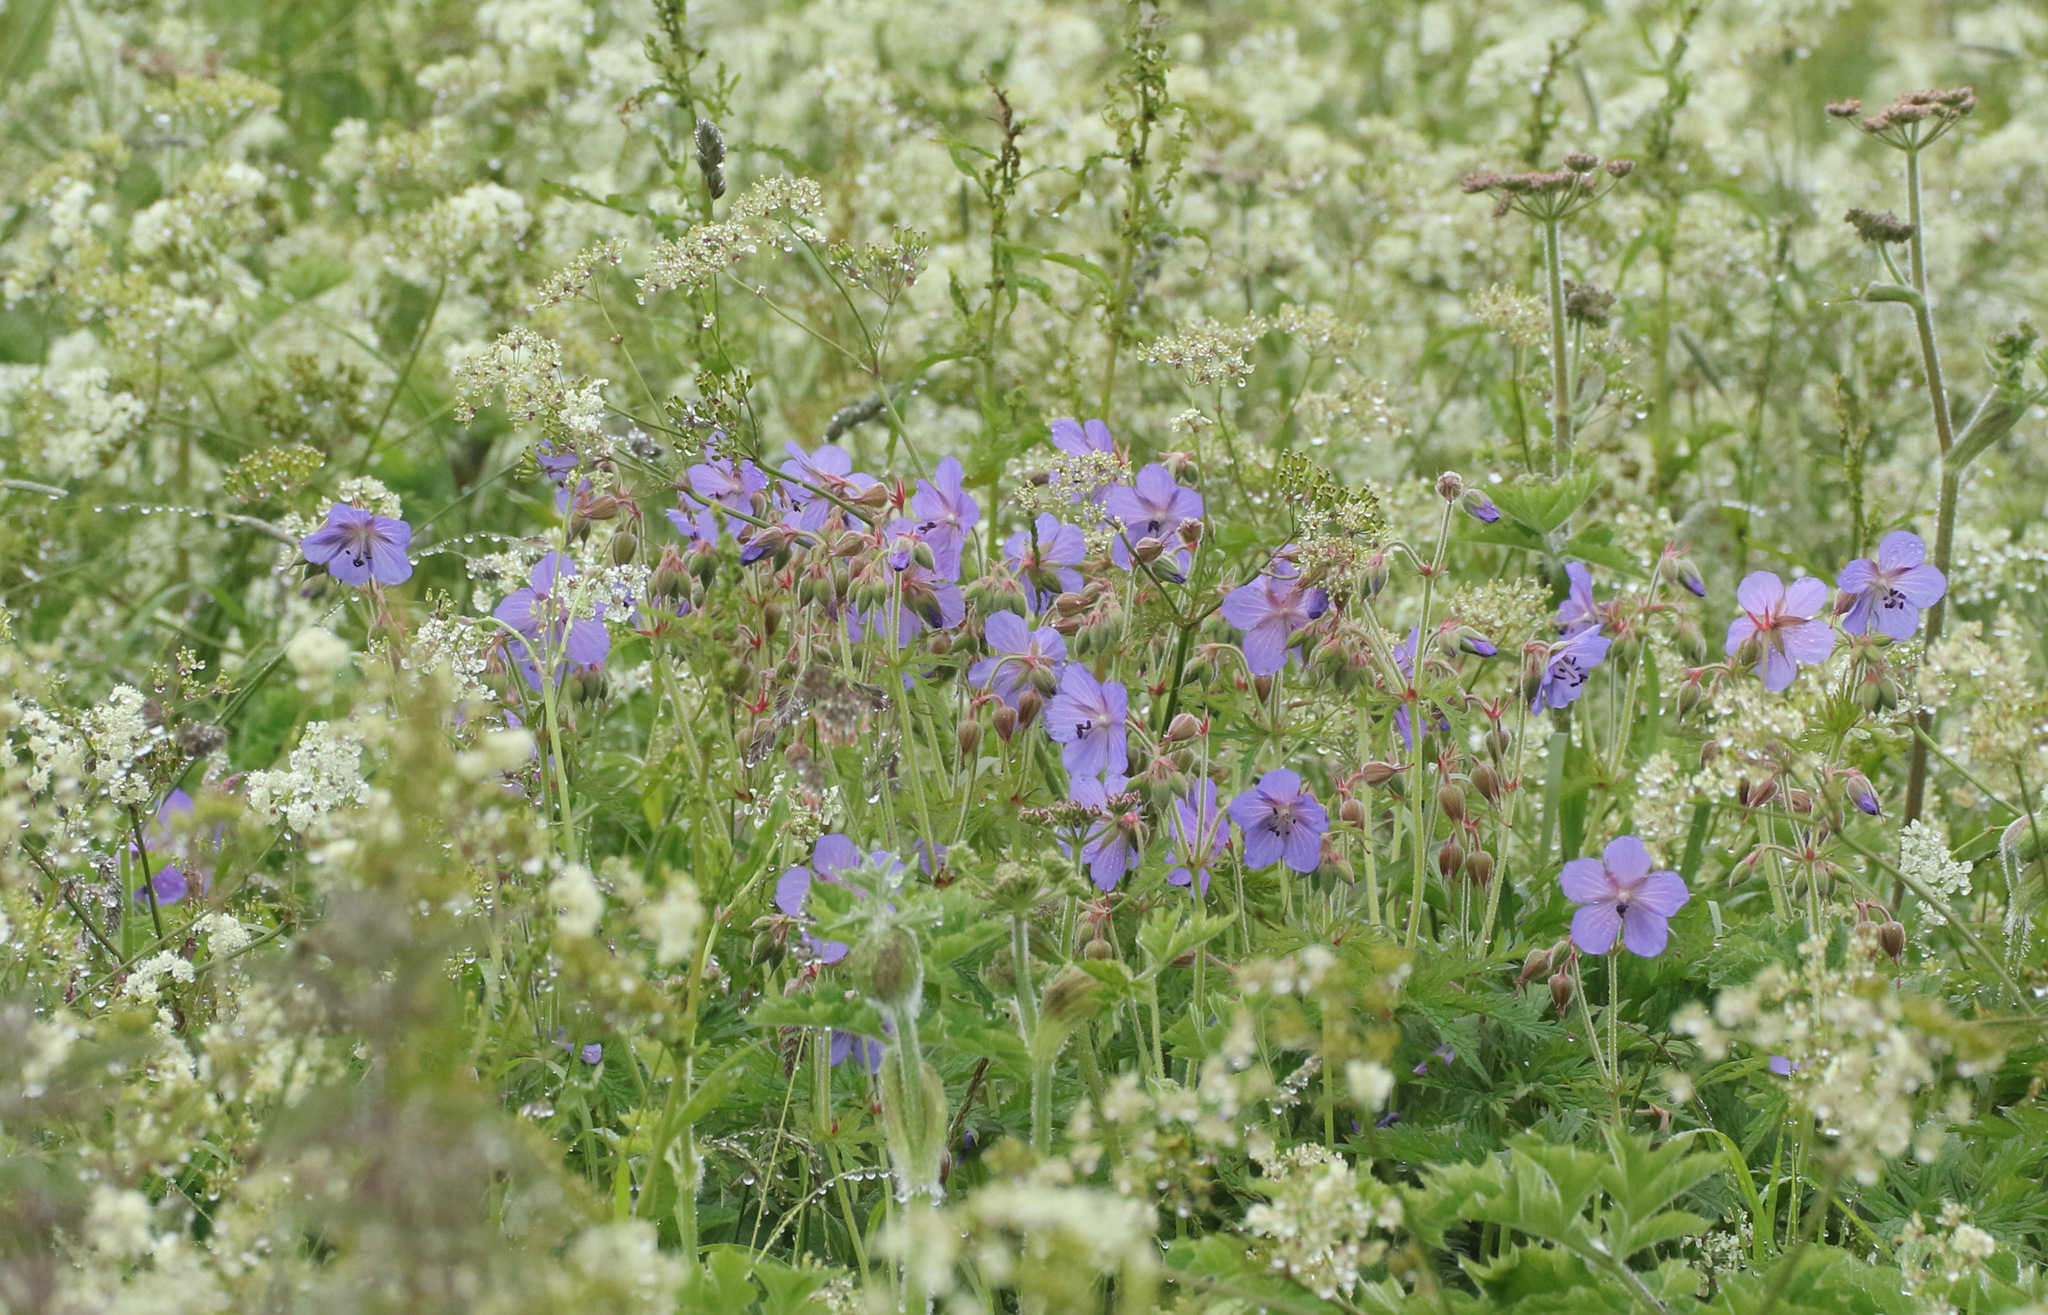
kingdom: Plantae
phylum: Tracheophyta
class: Magnoliopsida
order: Geraniales
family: Geraniaceae
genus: Geranium
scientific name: Geranium pratense
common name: Meadow crane's-bill
